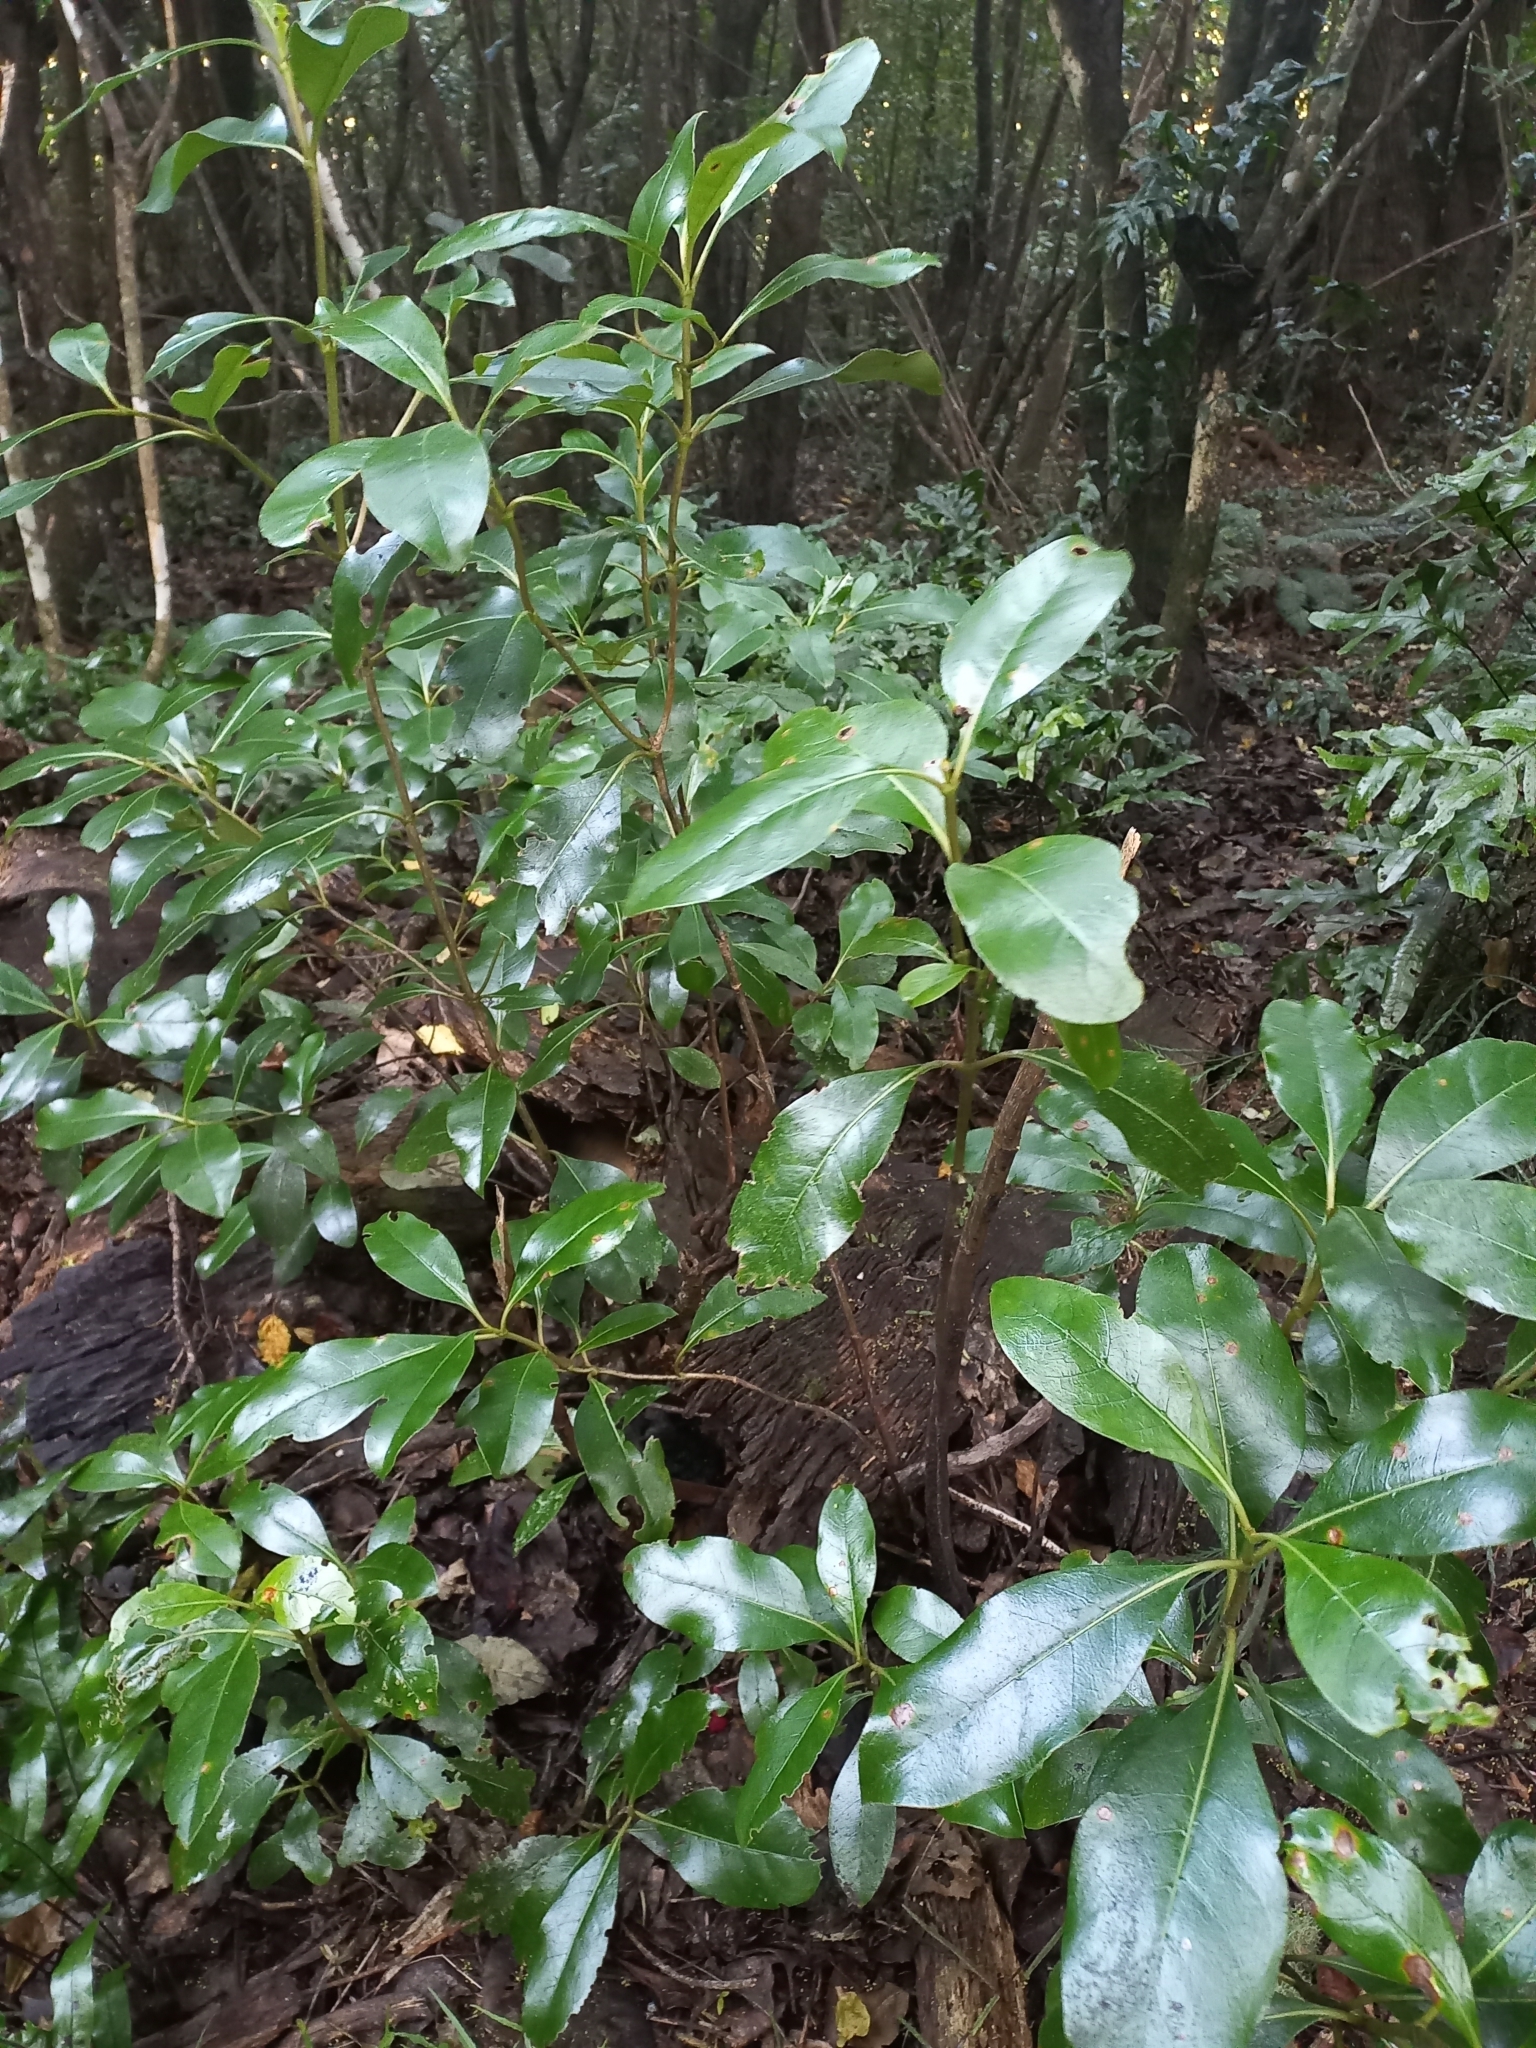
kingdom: Plantae
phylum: Tracheophyta
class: Magnoliopsida
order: Gentianales
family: Rubiaceae
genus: Coprosma
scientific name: Coprosma lucida
